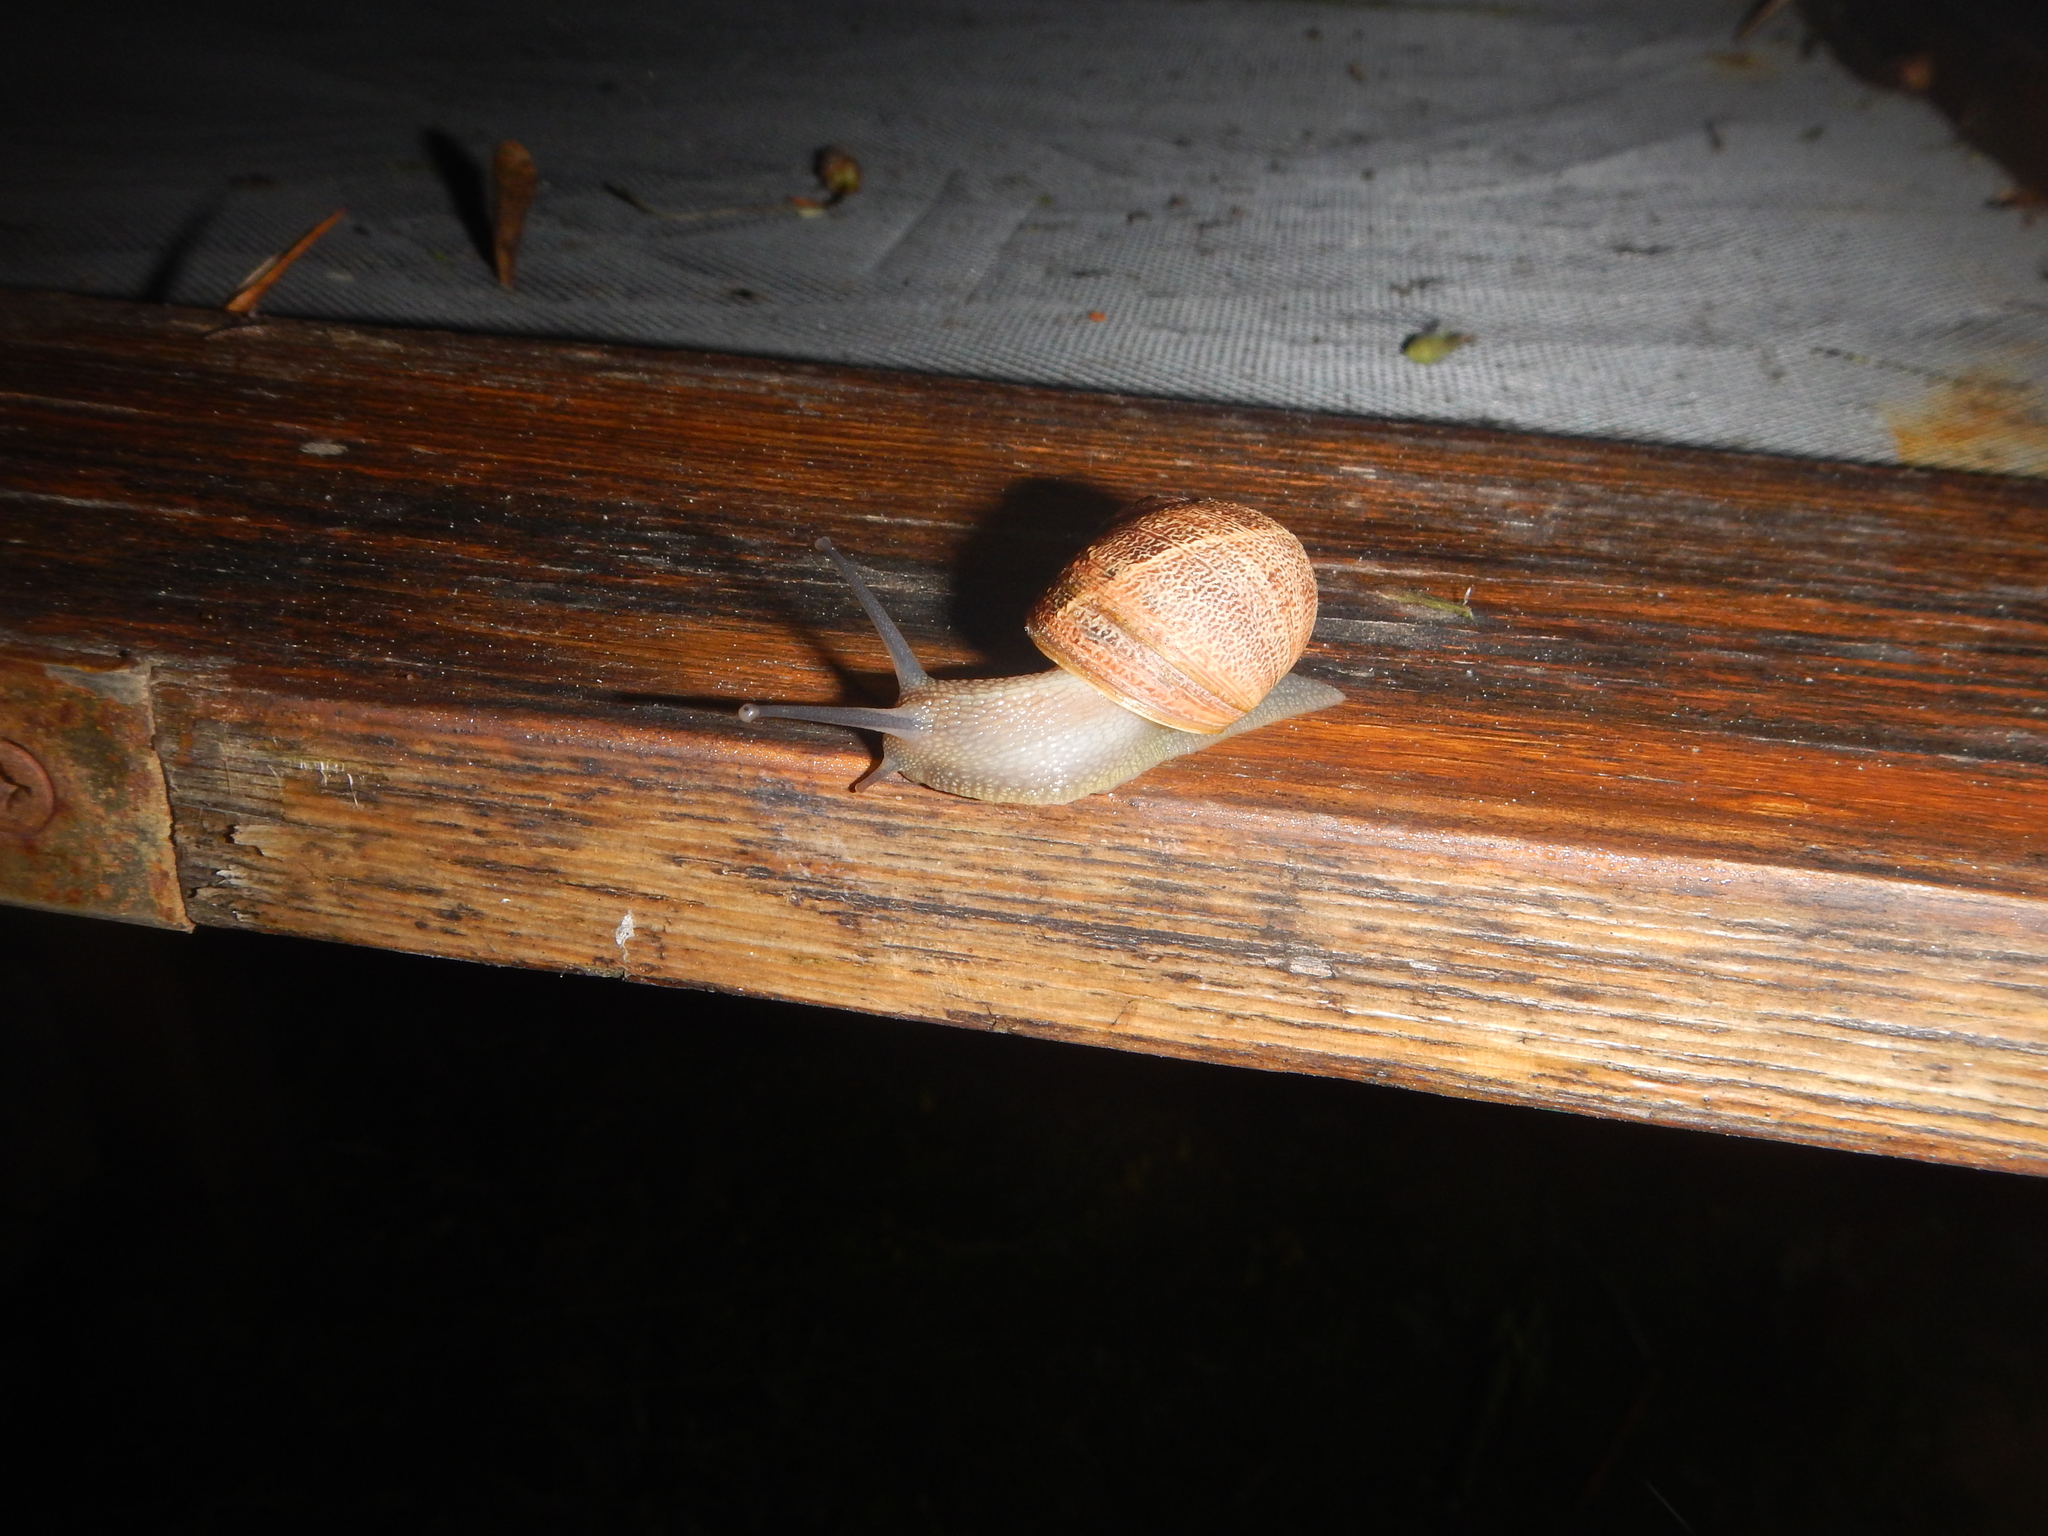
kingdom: Animalia
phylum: Mollusca
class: Gastropoda
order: Stylommatophora
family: Helicidae
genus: Cornu
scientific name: Cornu aspersum
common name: Brown garden snail
